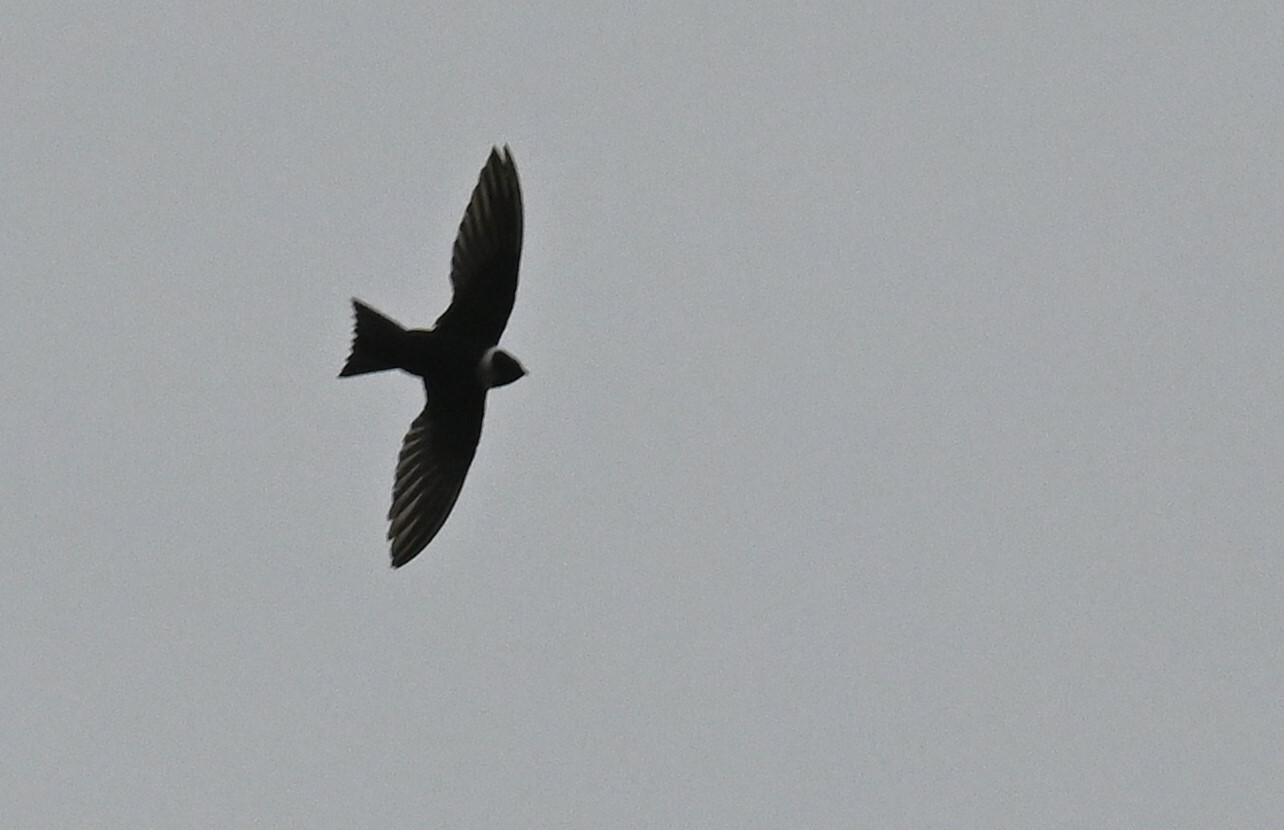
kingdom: Animalia
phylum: Chordata
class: Aves
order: Apodiformes
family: Apodidae
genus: Streptoprocne
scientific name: Streptoprocne zonaris
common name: White-collared swift
